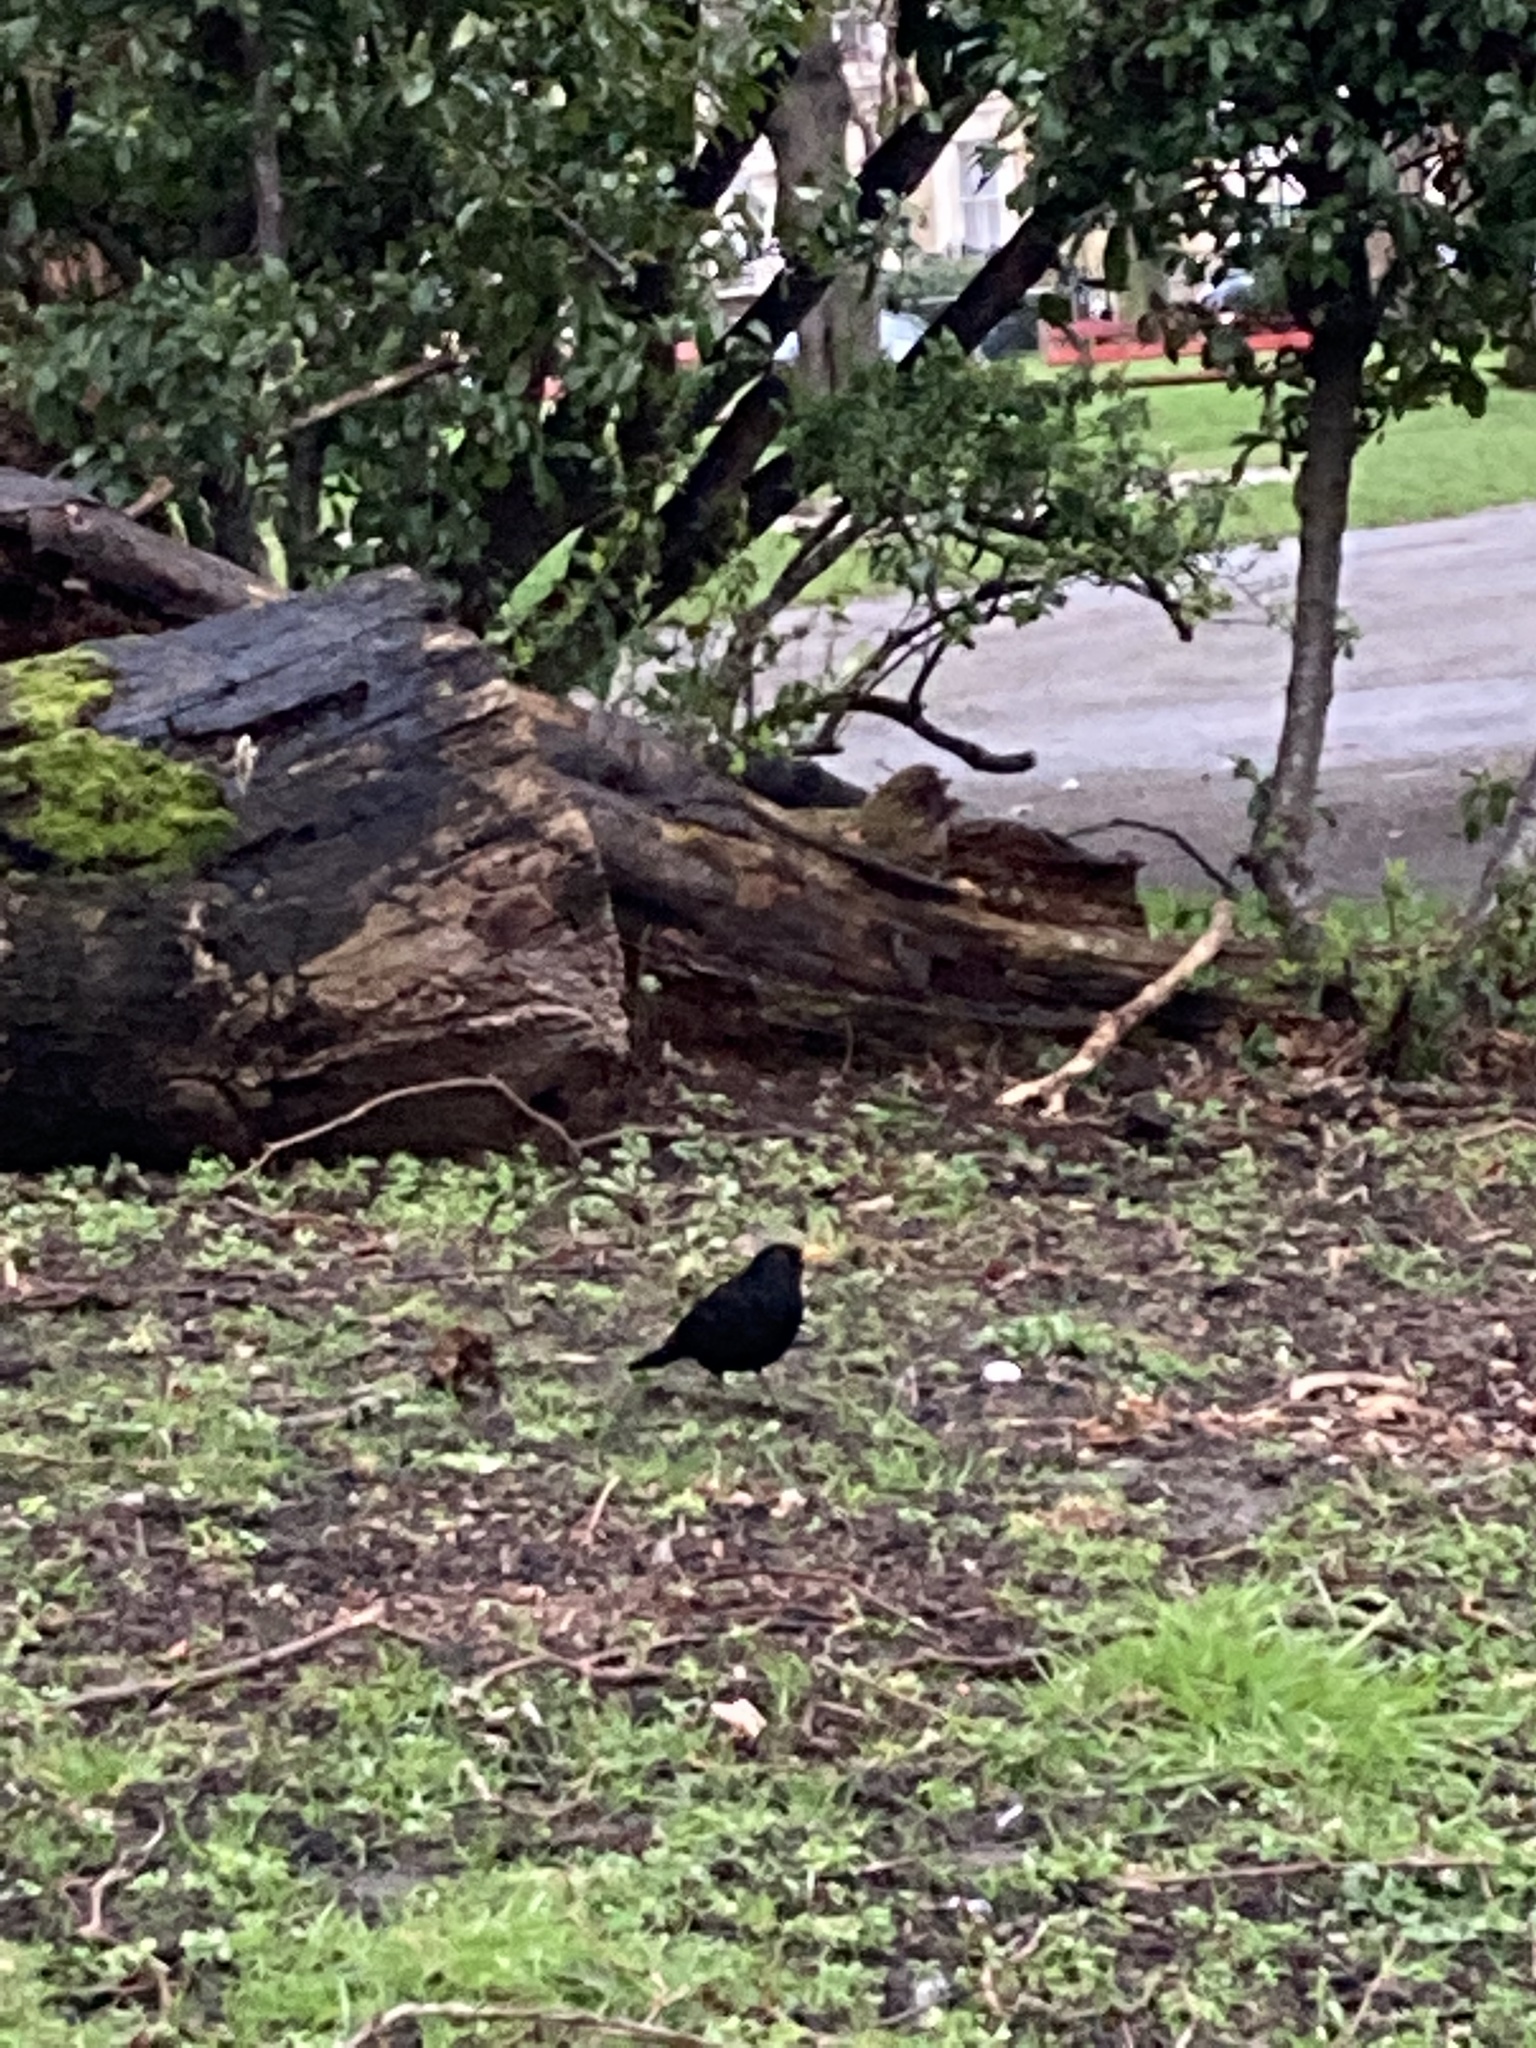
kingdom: Animalia
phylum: Chordata
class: Aves
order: Passeriformes
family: Turdidae
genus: Turdus
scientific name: Turdus merula
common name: Common blackbird
